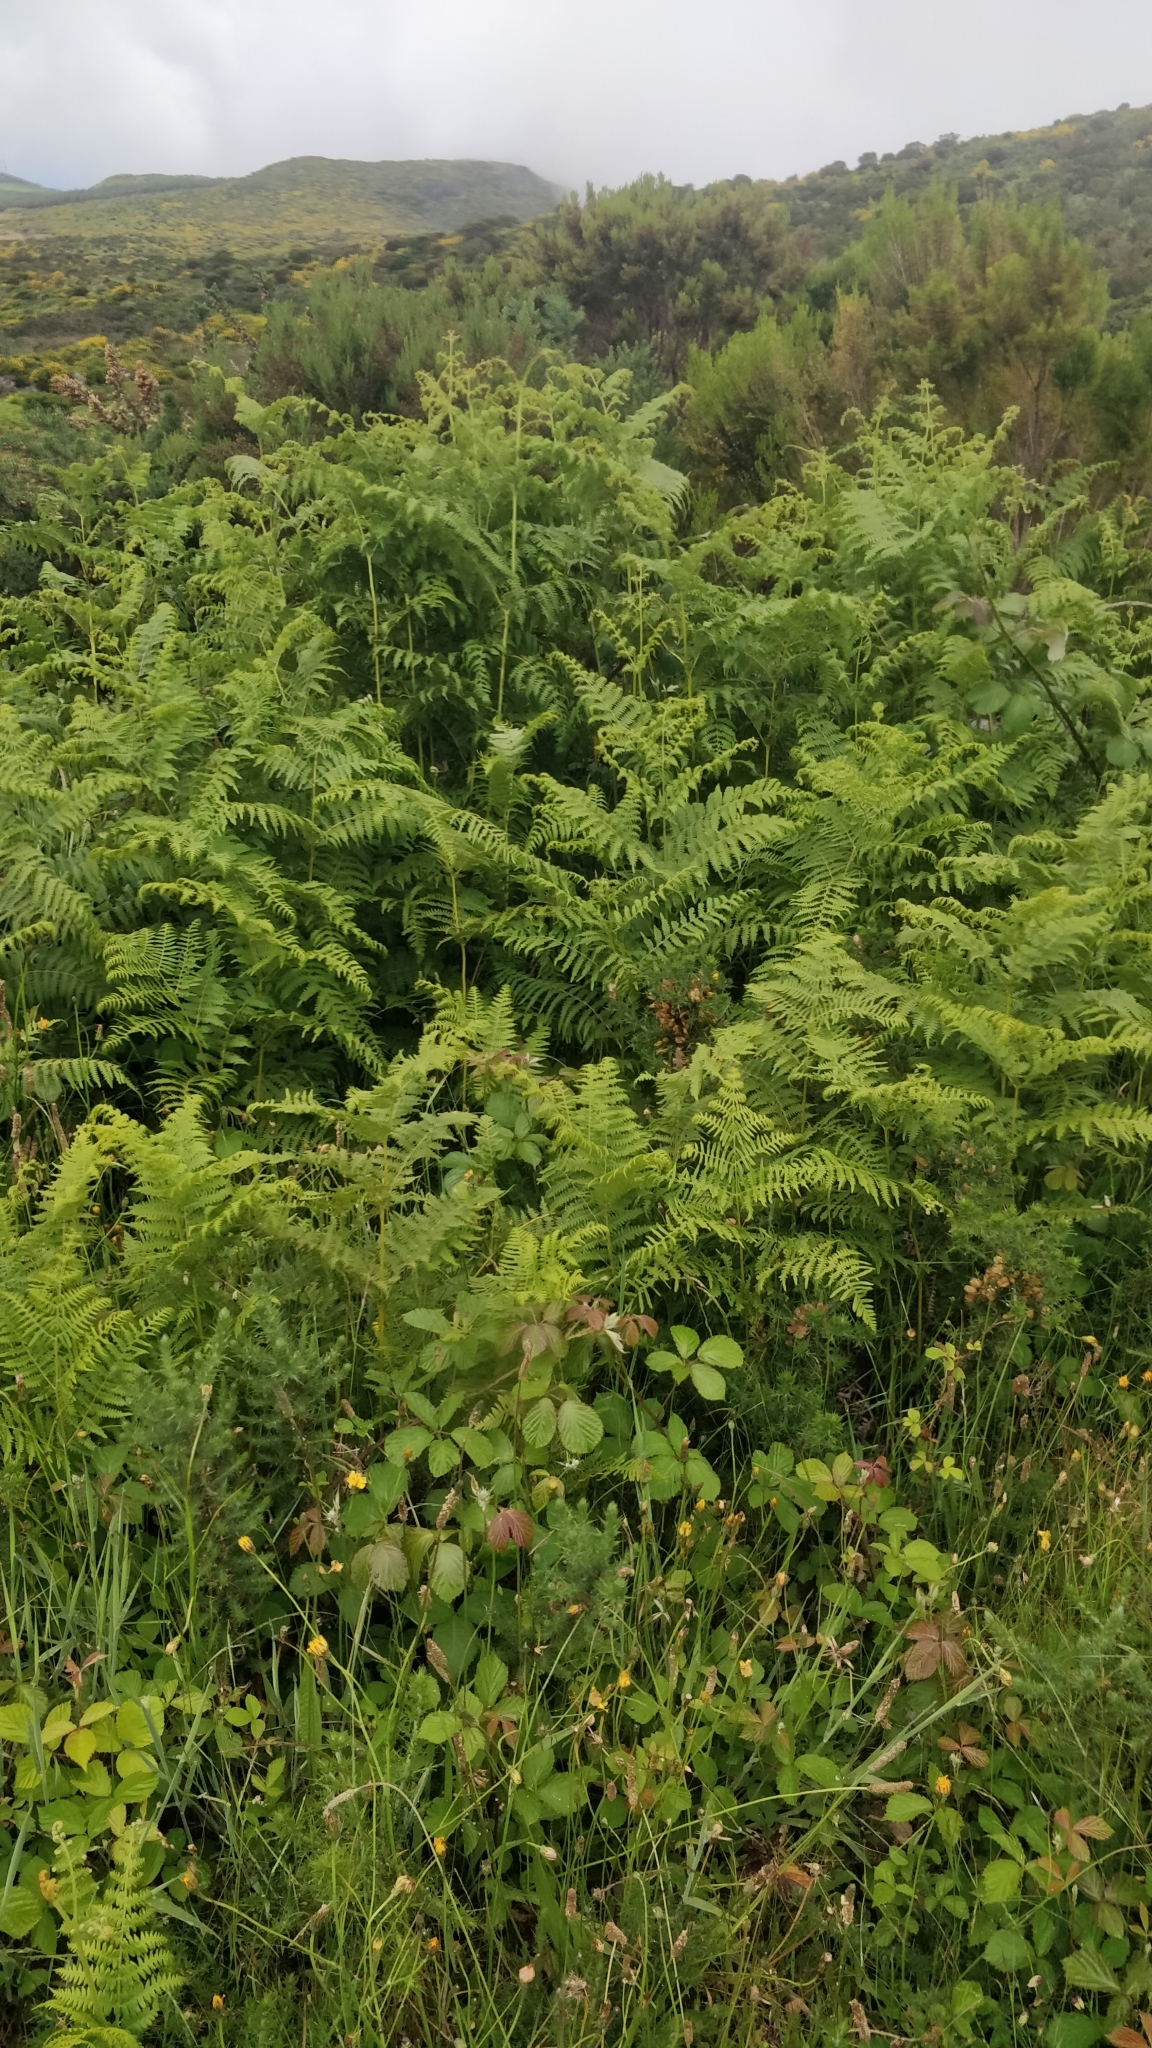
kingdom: Plantae
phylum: Tracheophyta
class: Polypodiopsida
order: Polypodiales
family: Dennstaedtiaceae
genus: Pteridium
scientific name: Pteridium aquilinum
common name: Bracken
